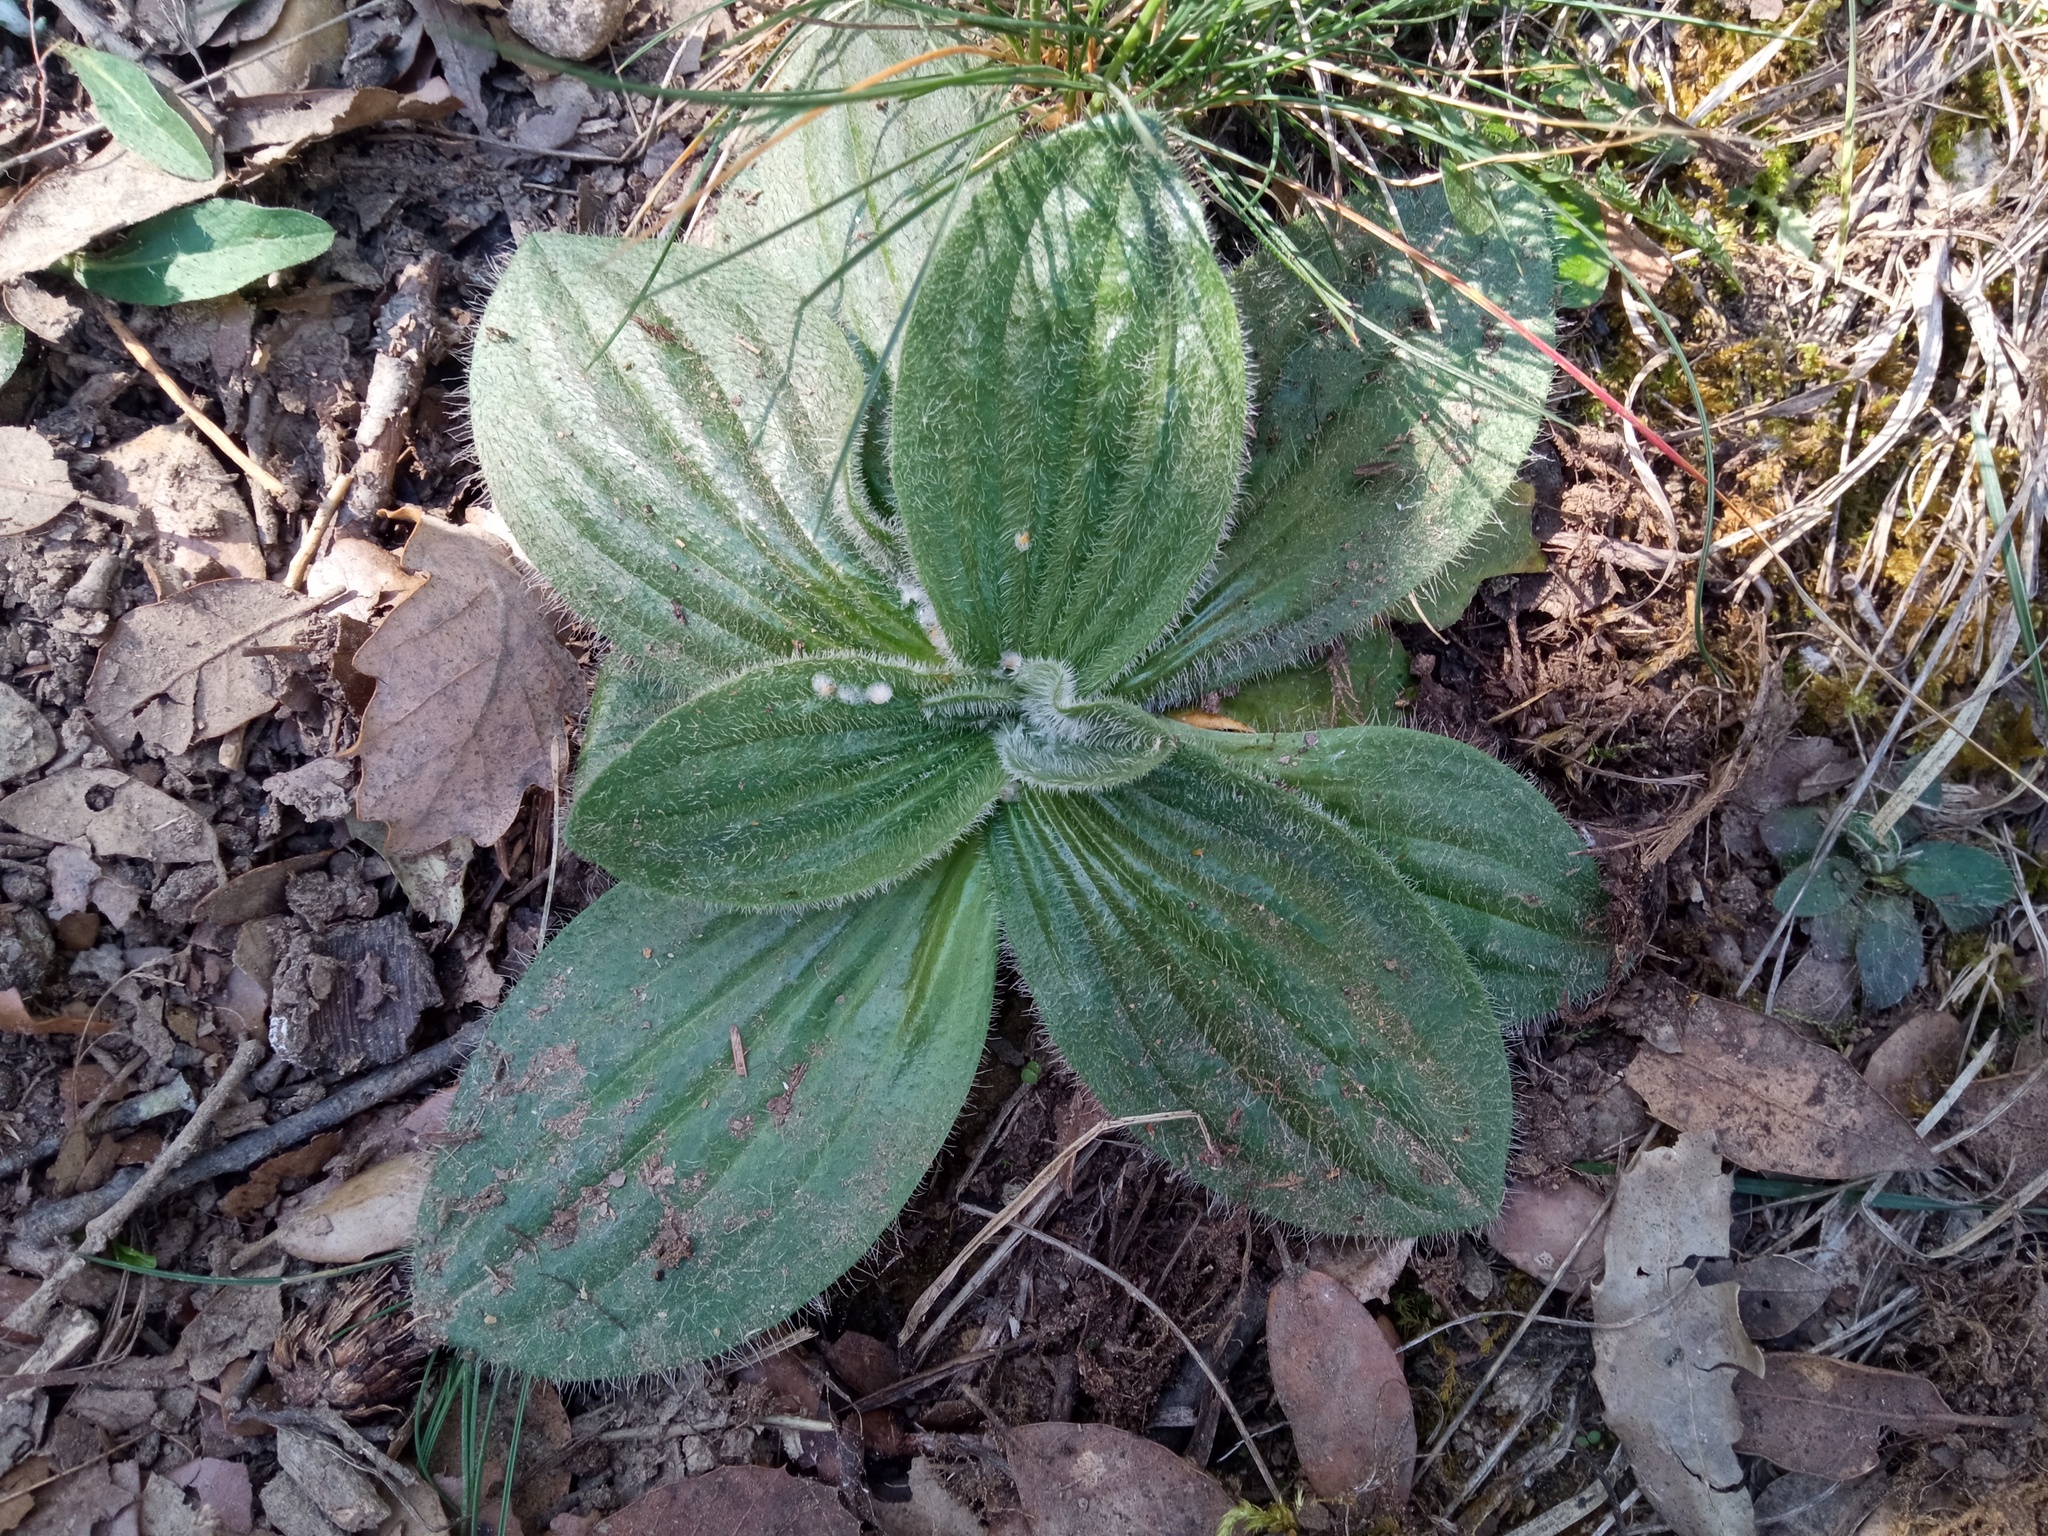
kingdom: Plantae
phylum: Tracheophyta
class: Magnoliopsida
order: Lamiales
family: Plantaginaceae
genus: Plantago
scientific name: Plantago media
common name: Hoary plantain
